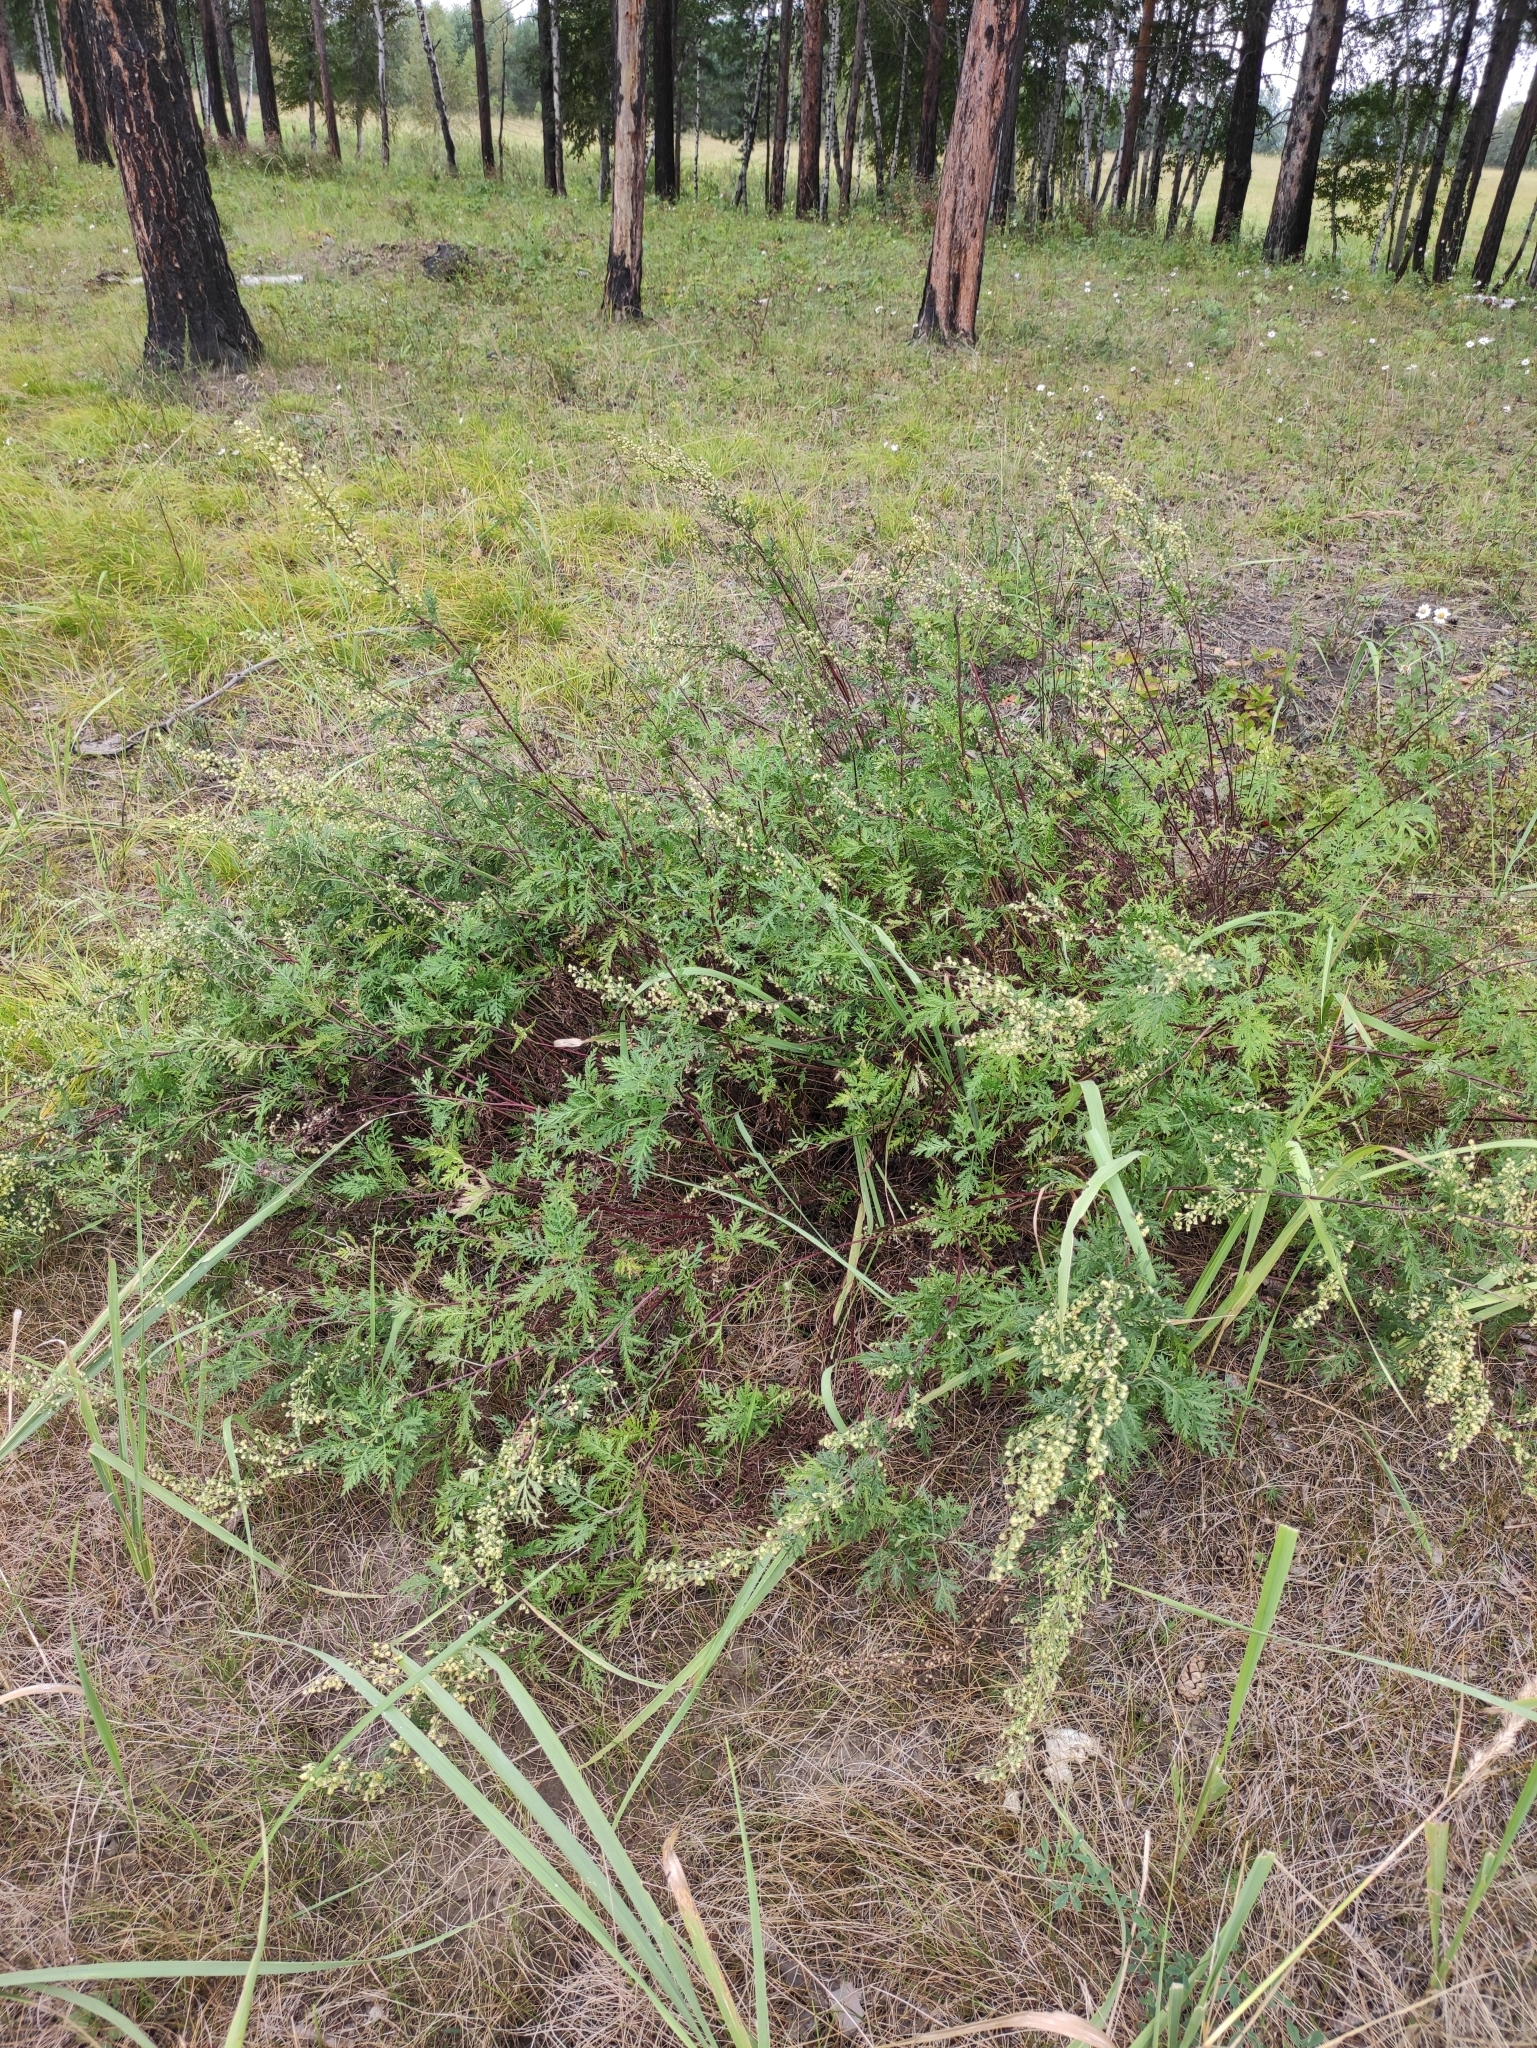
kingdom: Plantae
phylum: Tracheophyta
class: Magnoliopsida
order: Asterales
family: Asteraceae
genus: Artemisia
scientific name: Artemisia gmelinii
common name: Gmelin's wormwood
